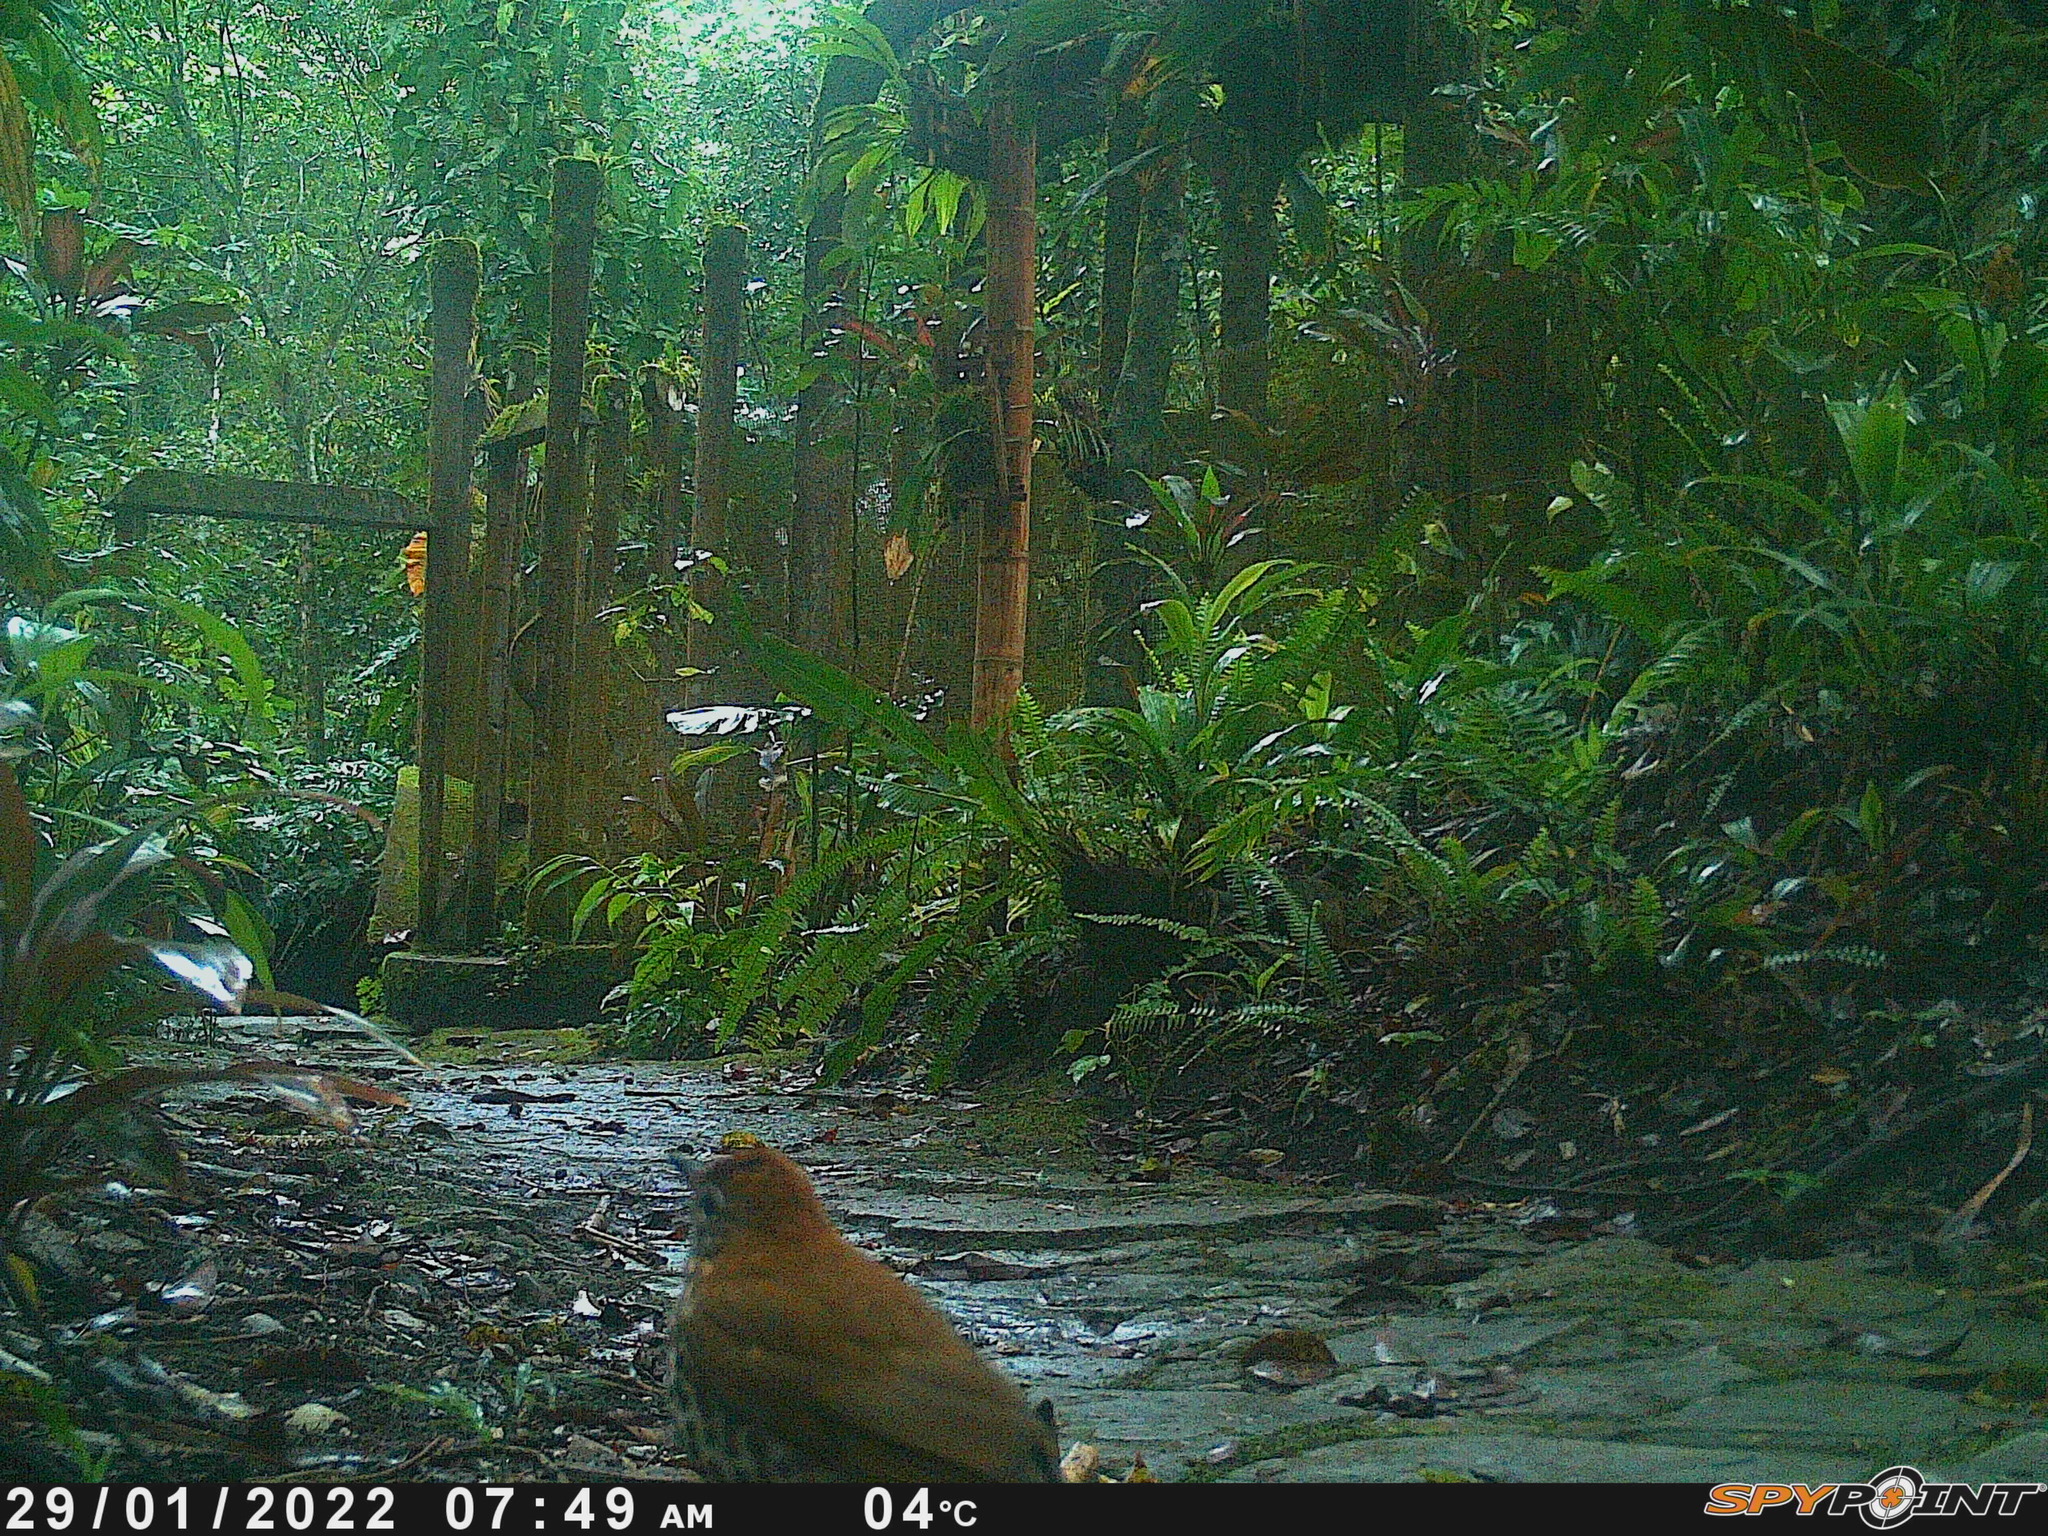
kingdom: Animalia
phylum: Chordata
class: Aves
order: Passeriformes
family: Turdidae
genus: Hylocichla
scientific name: Hylocichla mustelina
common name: Wood thrush
